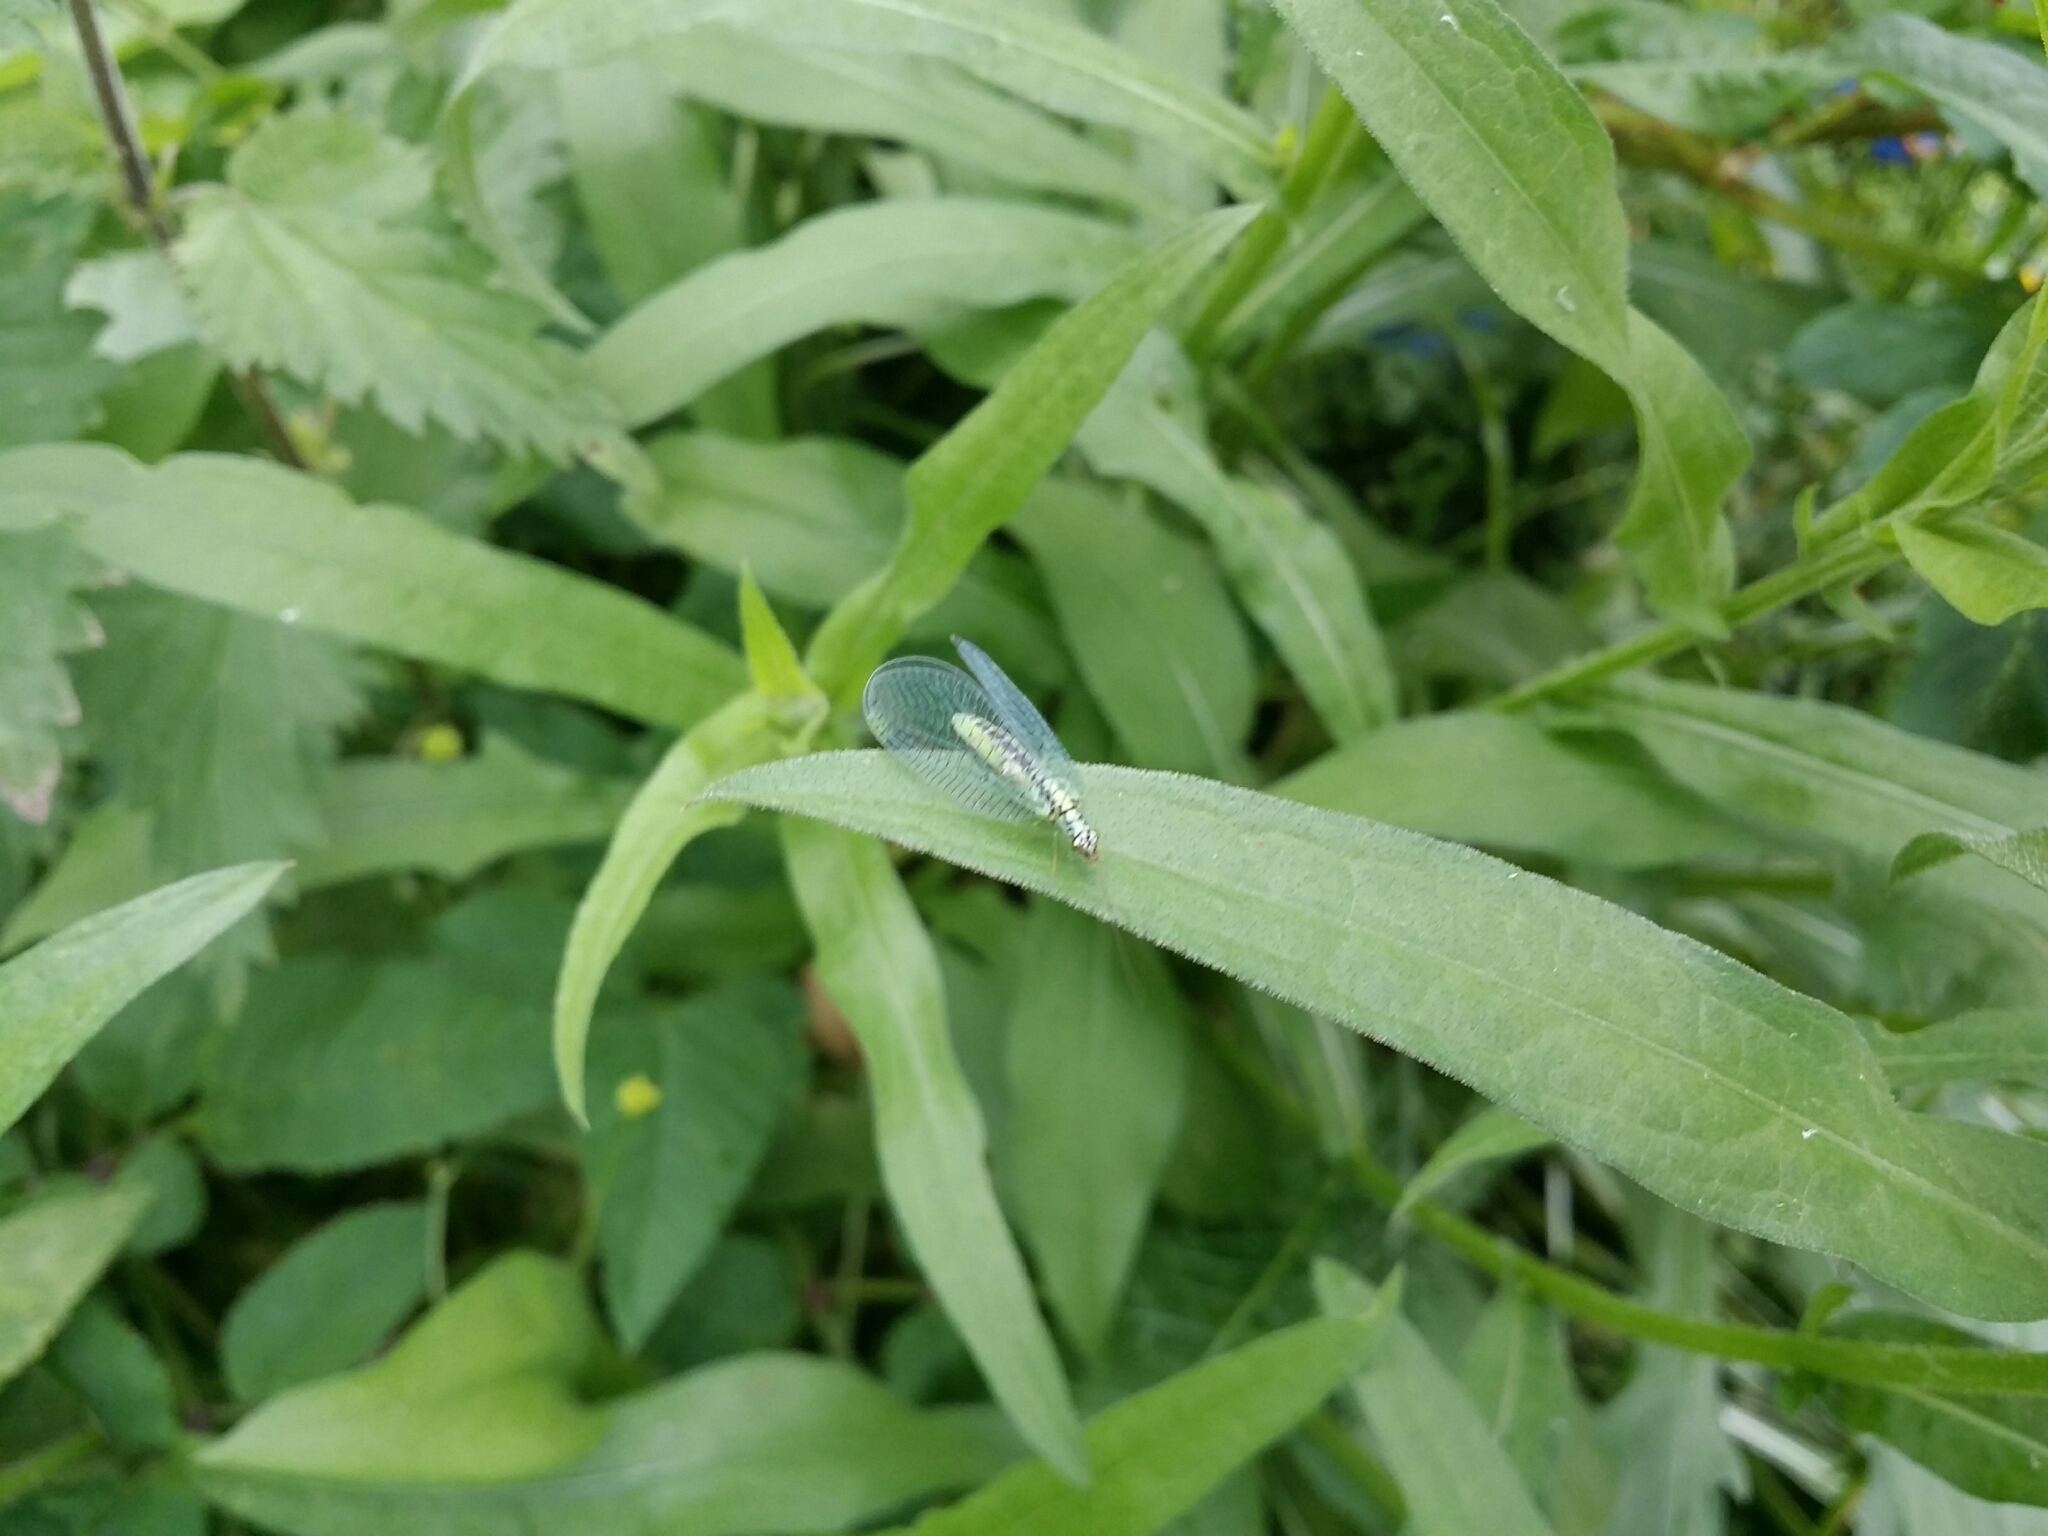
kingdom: Animalia
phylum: Arthropoda
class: Insecta
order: Neuroptera
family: Chrysopidae
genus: Chrysopa
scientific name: Chrysopa perla
